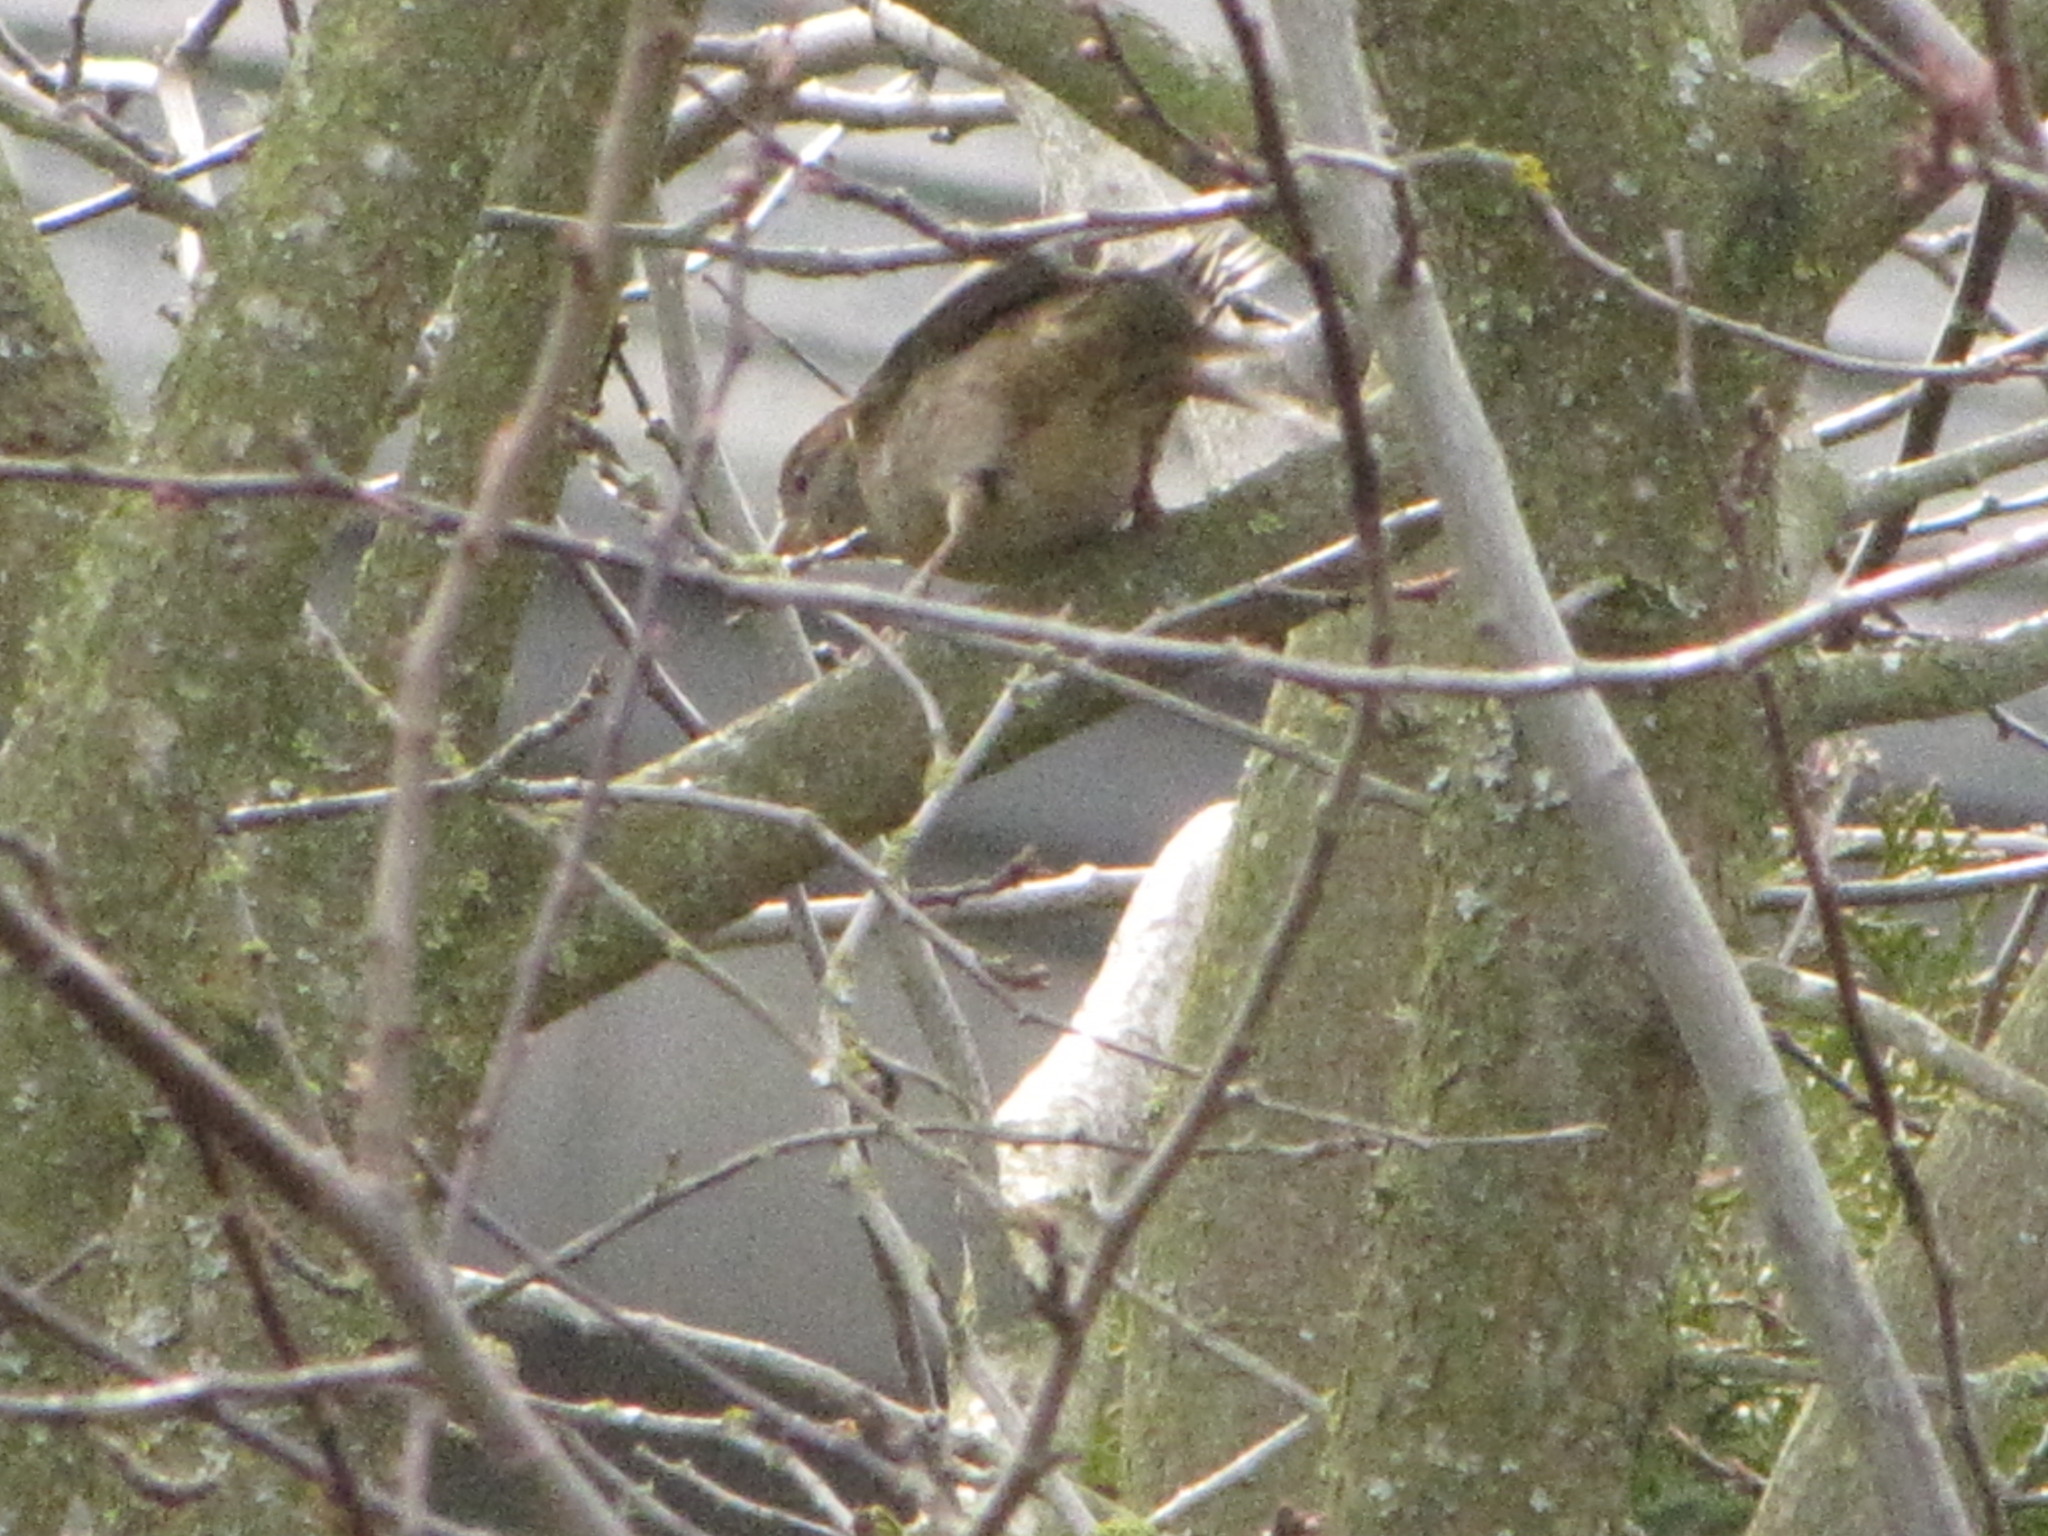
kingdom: Animalia
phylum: Chordata
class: Aves
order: Passeriformes
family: Passeridae
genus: Passer
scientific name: Passer domesticus
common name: House sparrow
